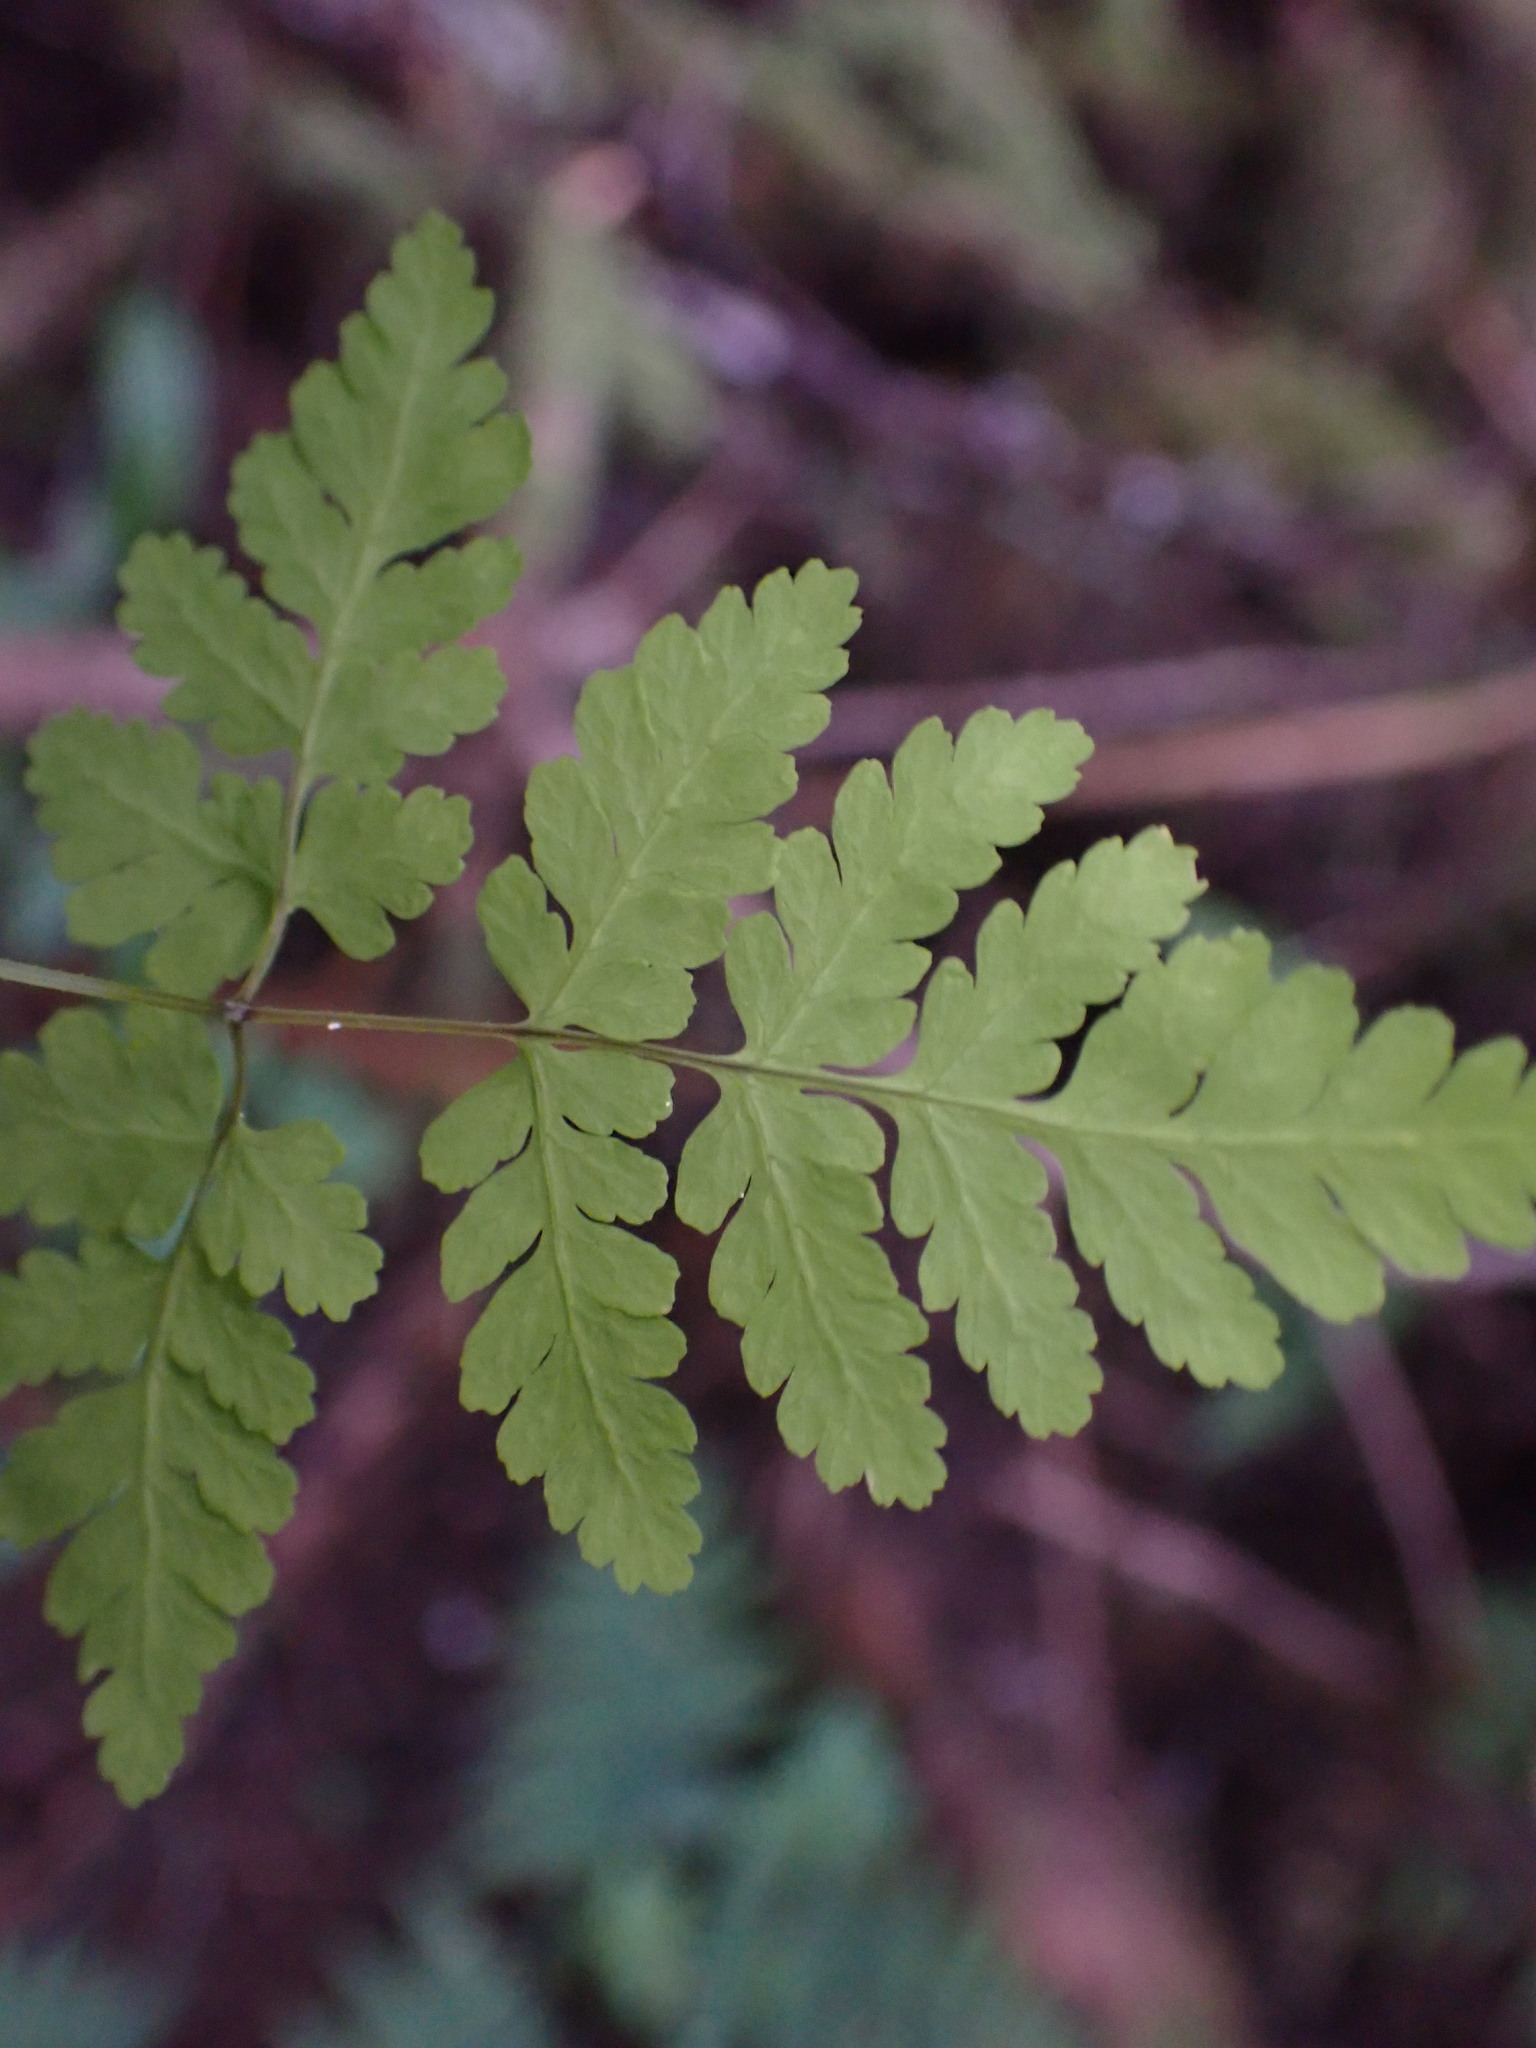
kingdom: Plantae
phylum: Tracheophyta
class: Polypodiopsida
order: Polypodiales
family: Cystopteridaceae
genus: Gymnocarpium
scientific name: Gymnocarpium disjunctum
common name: Western oak fern
